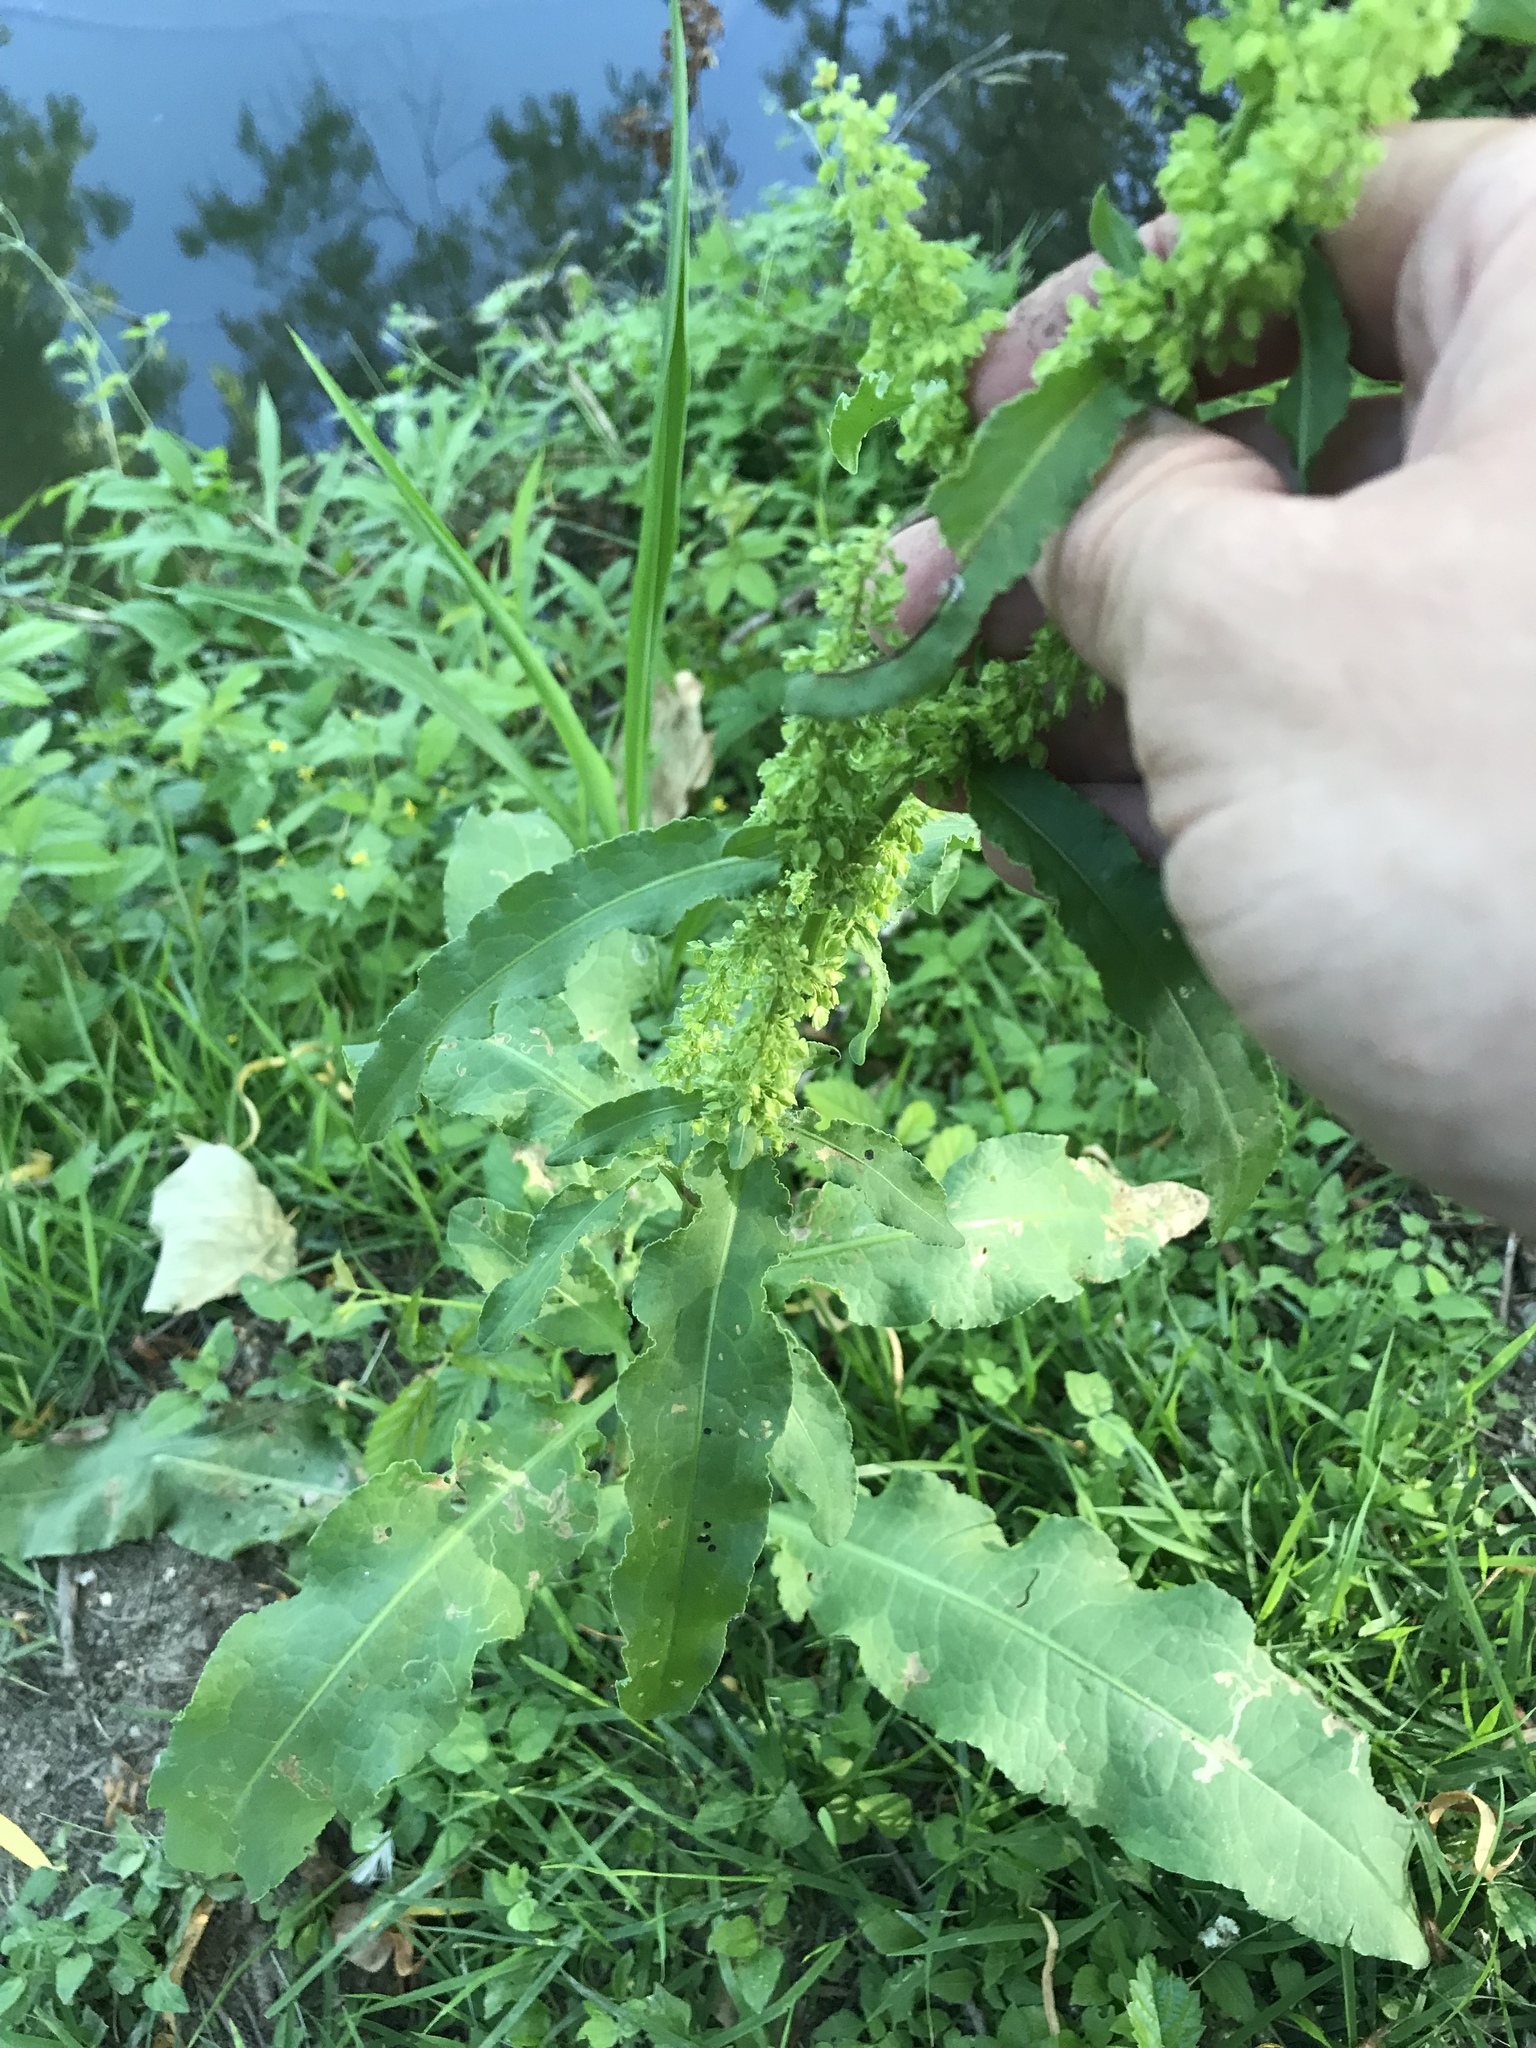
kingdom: Plantae
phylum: Tracheophyta
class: Magnoliopsida
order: Caryophyllales
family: Polygonaceae
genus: Rumex
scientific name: Rumex crispus
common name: Curled dock
